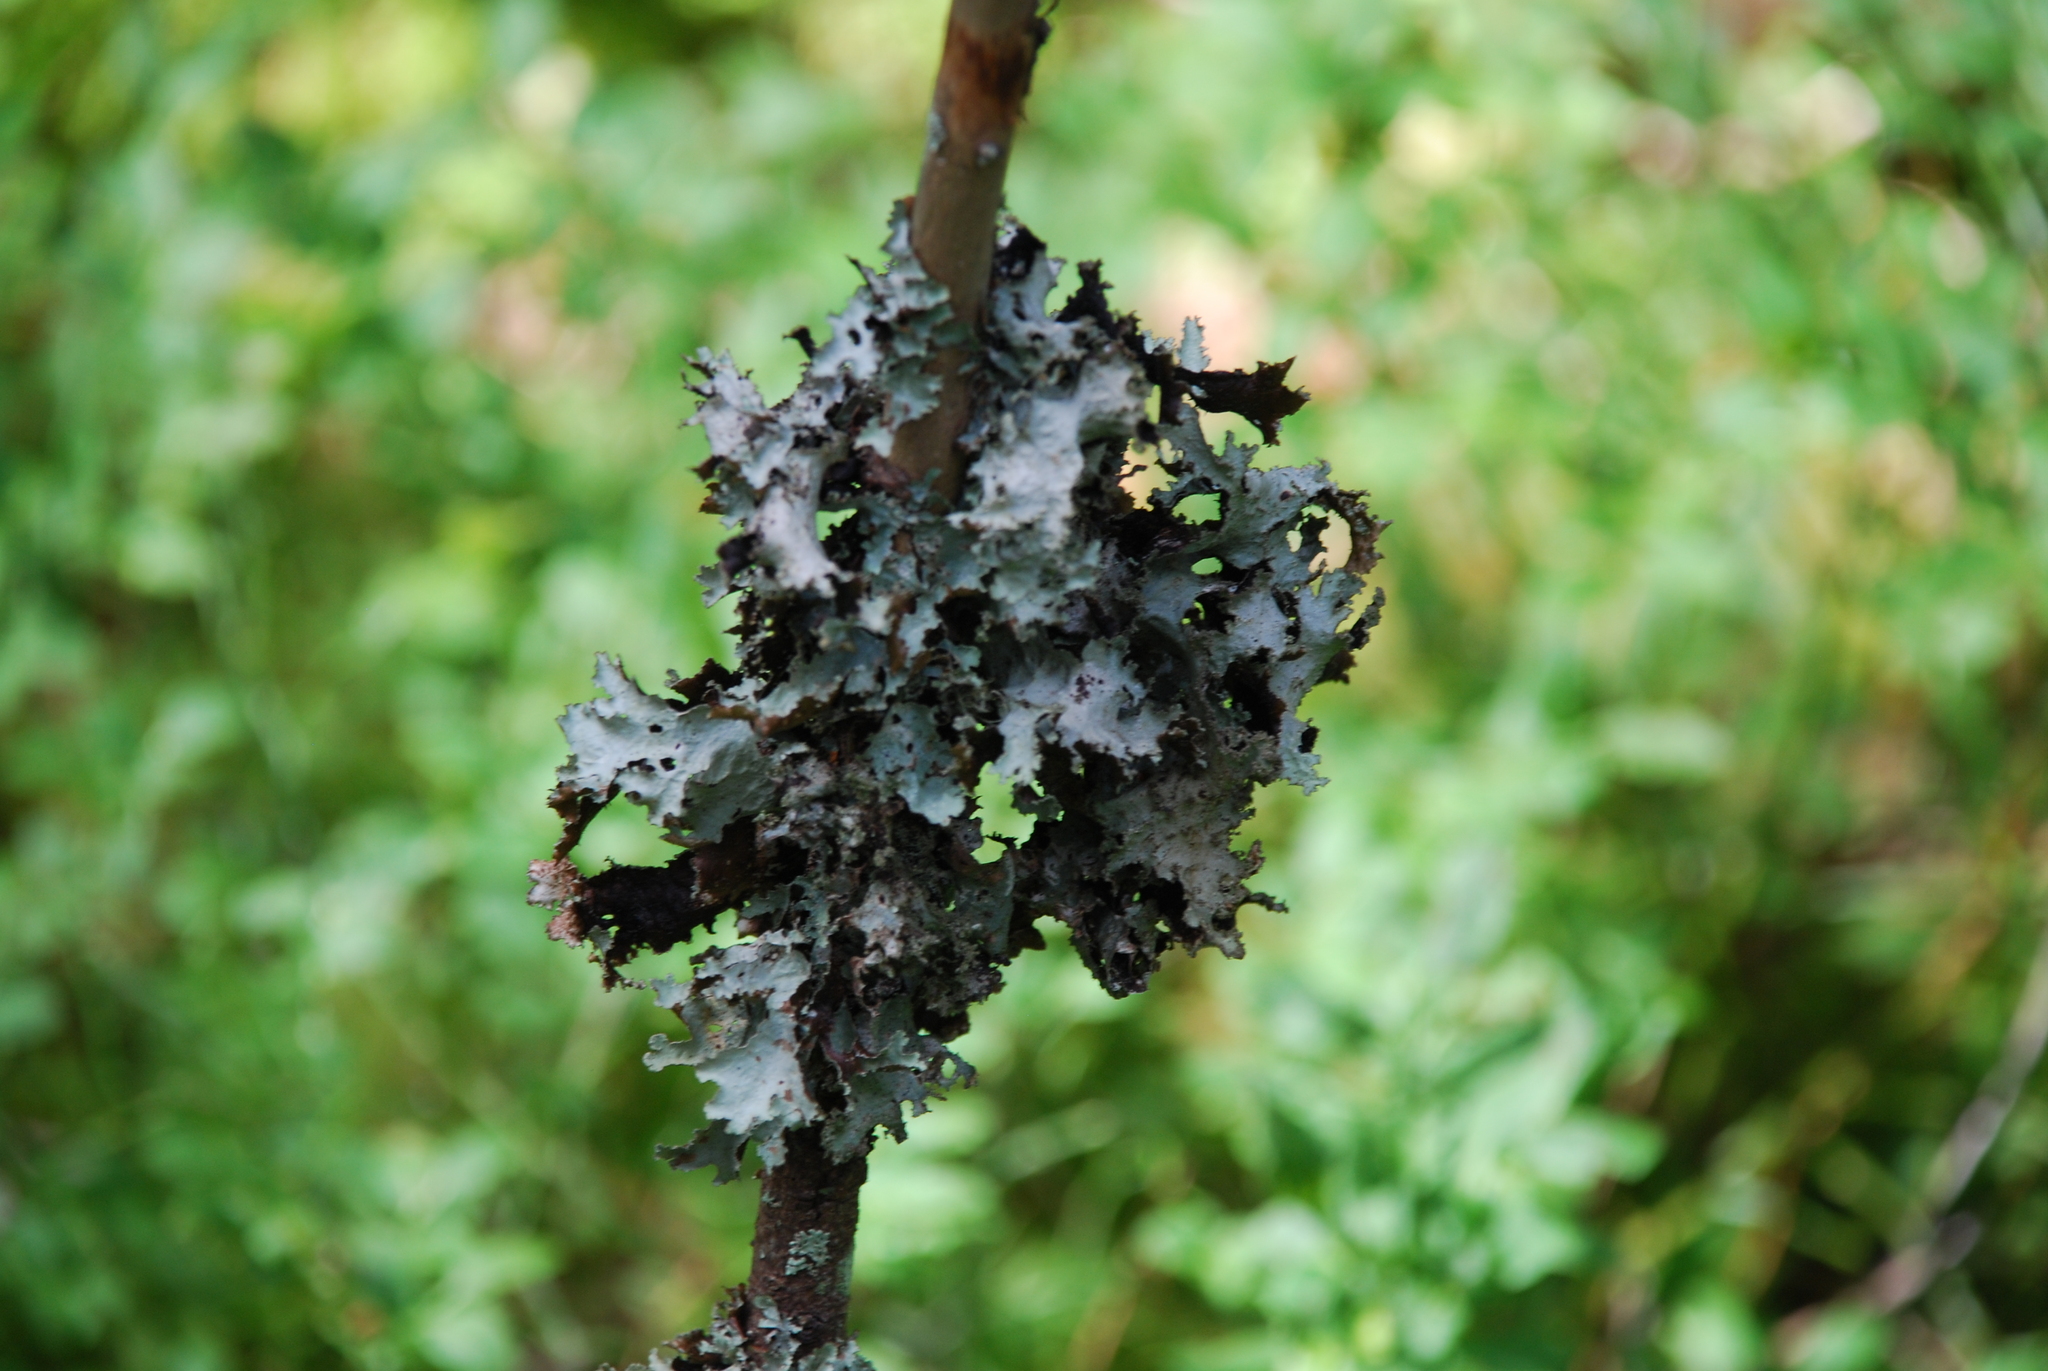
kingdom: Fungi
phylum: Ascomycota
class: Lecanoromycetes
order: Lecanorales
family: Parmeliaceae
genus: Platismatia
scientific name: Platismatia glauca
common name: Varied rag lichen
